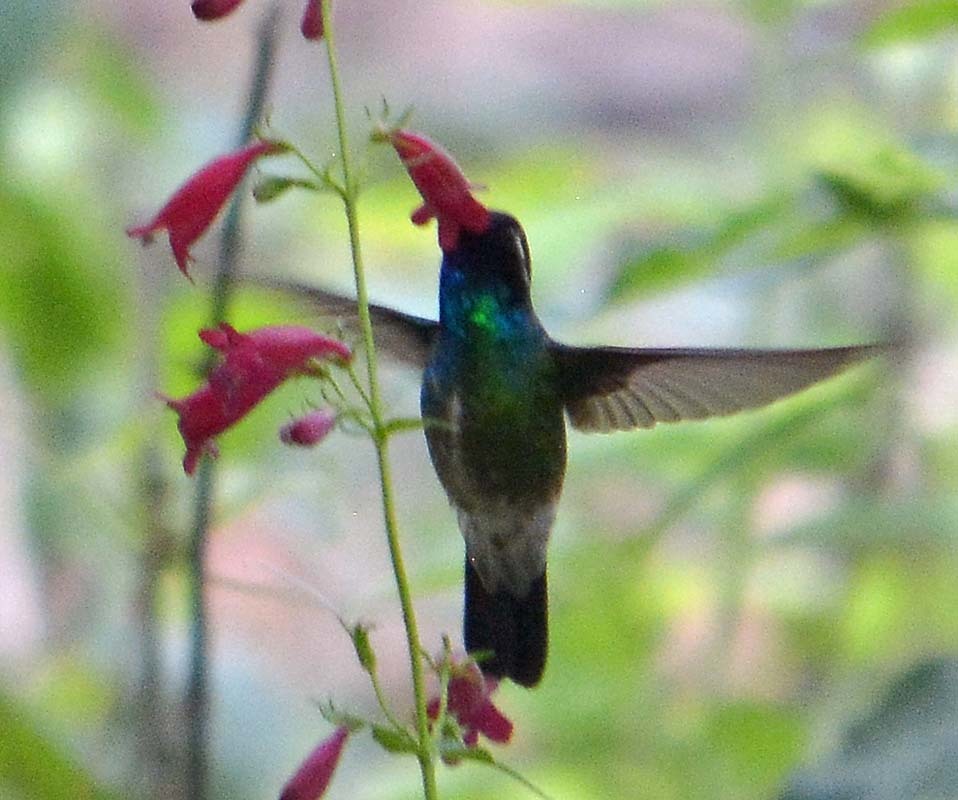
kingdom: Animalia
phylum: Chordata
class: Aves
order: Apodiformes
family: Trochilidae
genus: Basilinna
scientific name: Basilinna leucotis
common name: White-eared hummingbird
